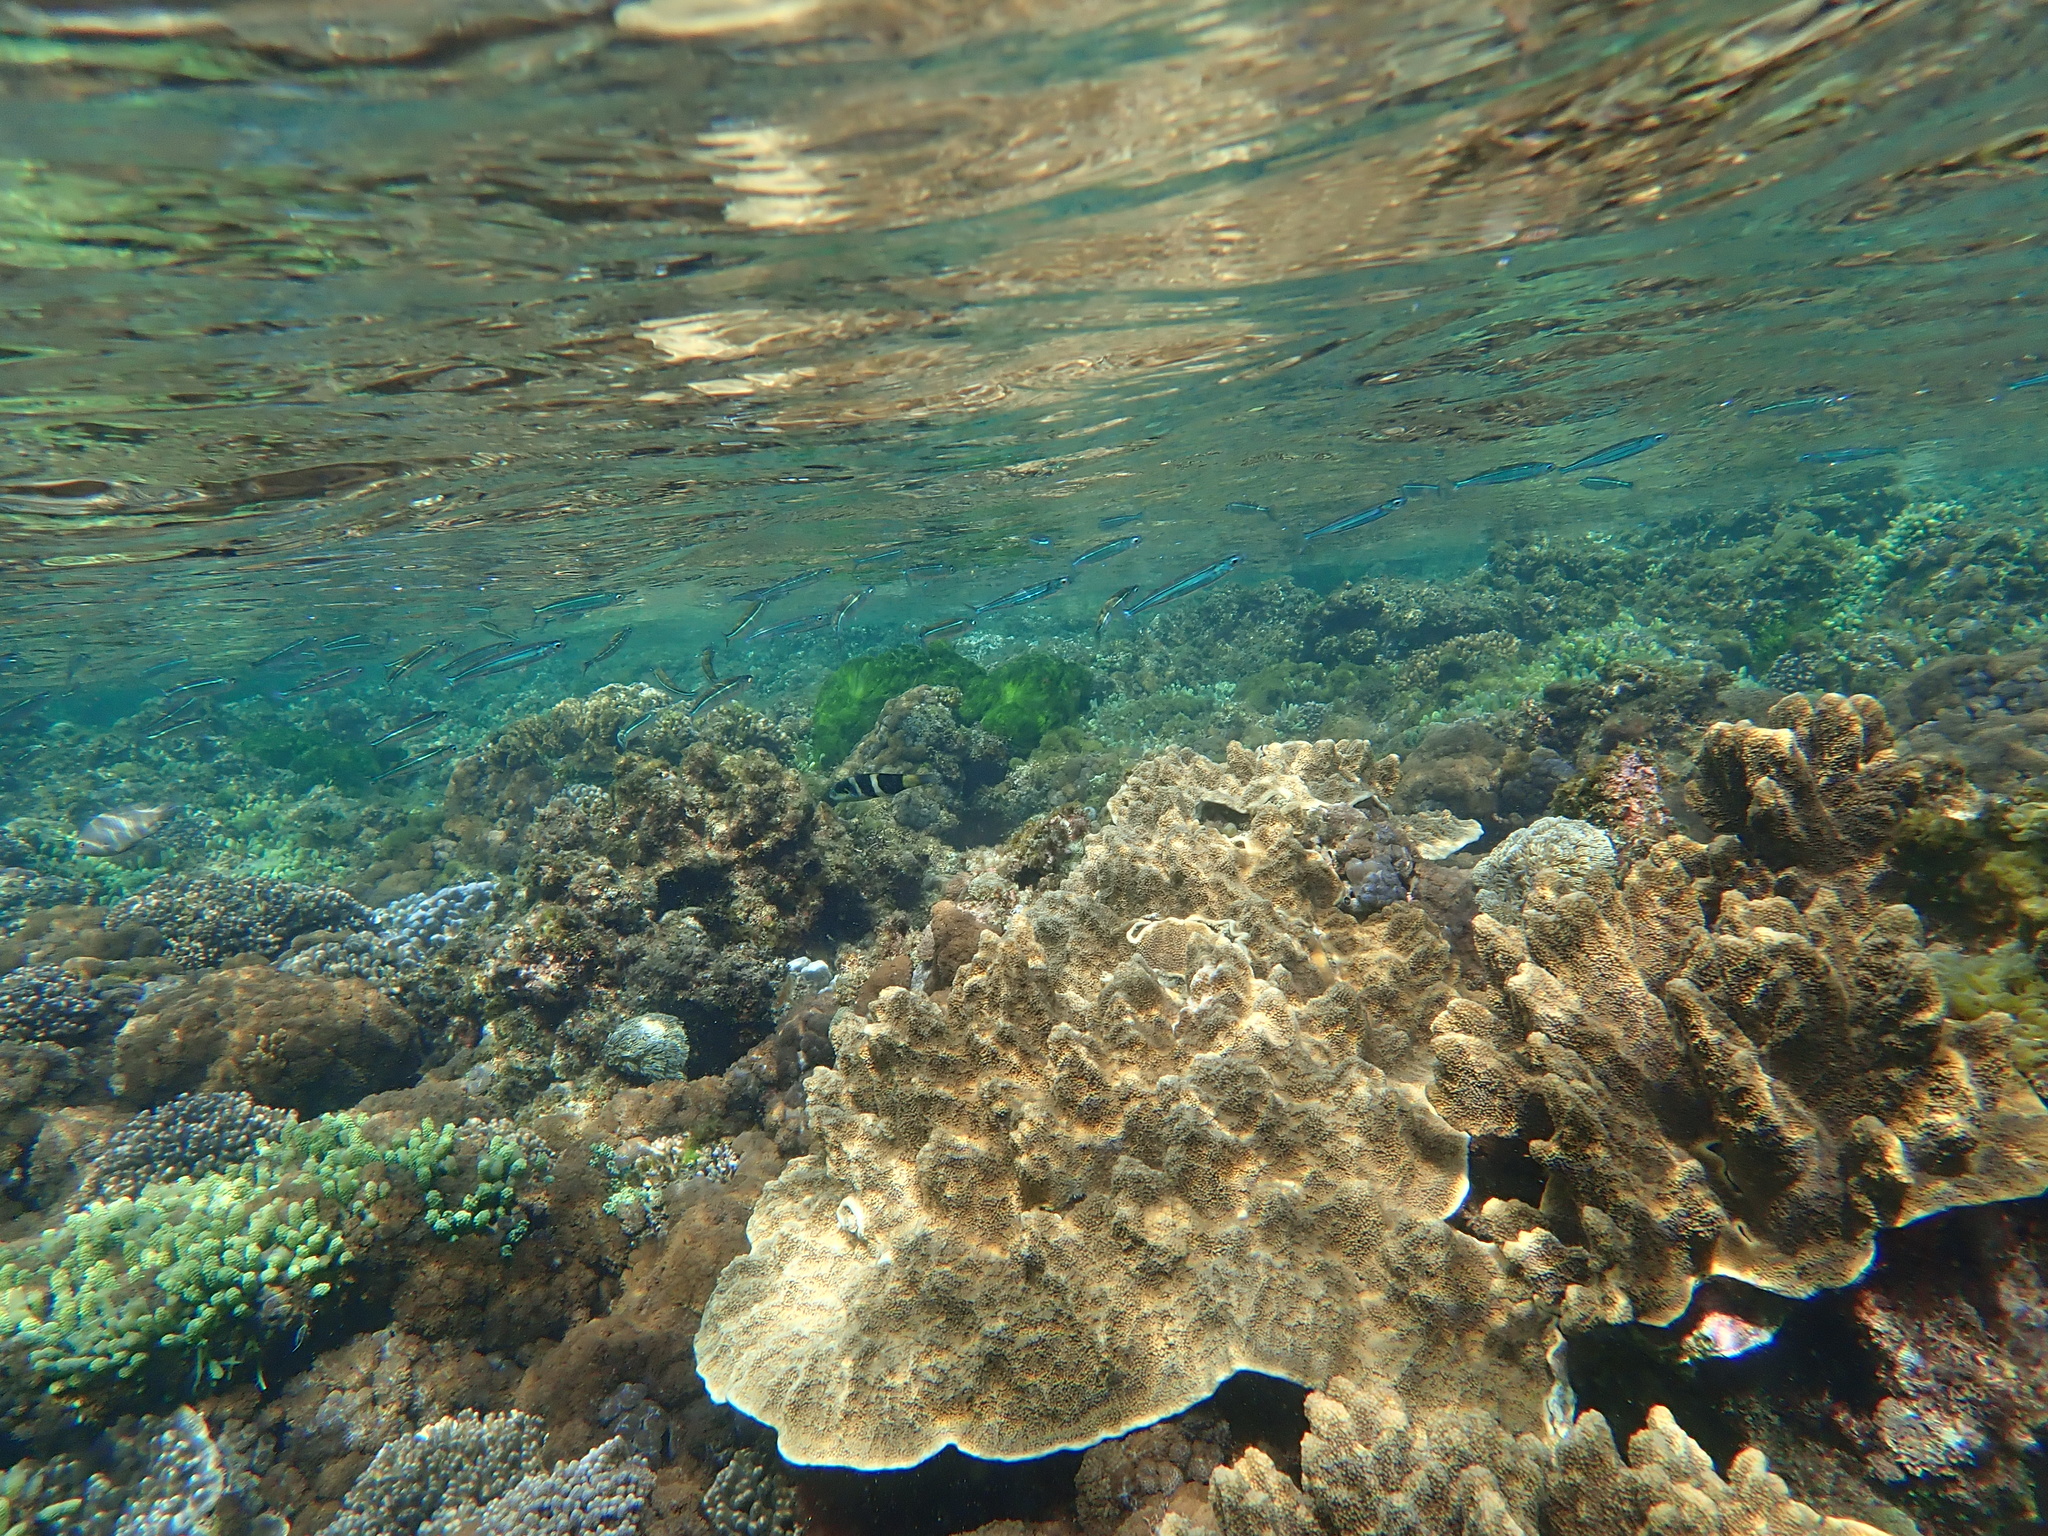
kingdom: Animalia
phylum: Chordata
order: Perciformes
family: Labridae
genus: Thalassoma
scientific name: Thalassoma nigrofasciatum
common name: Black-barred wrasse
